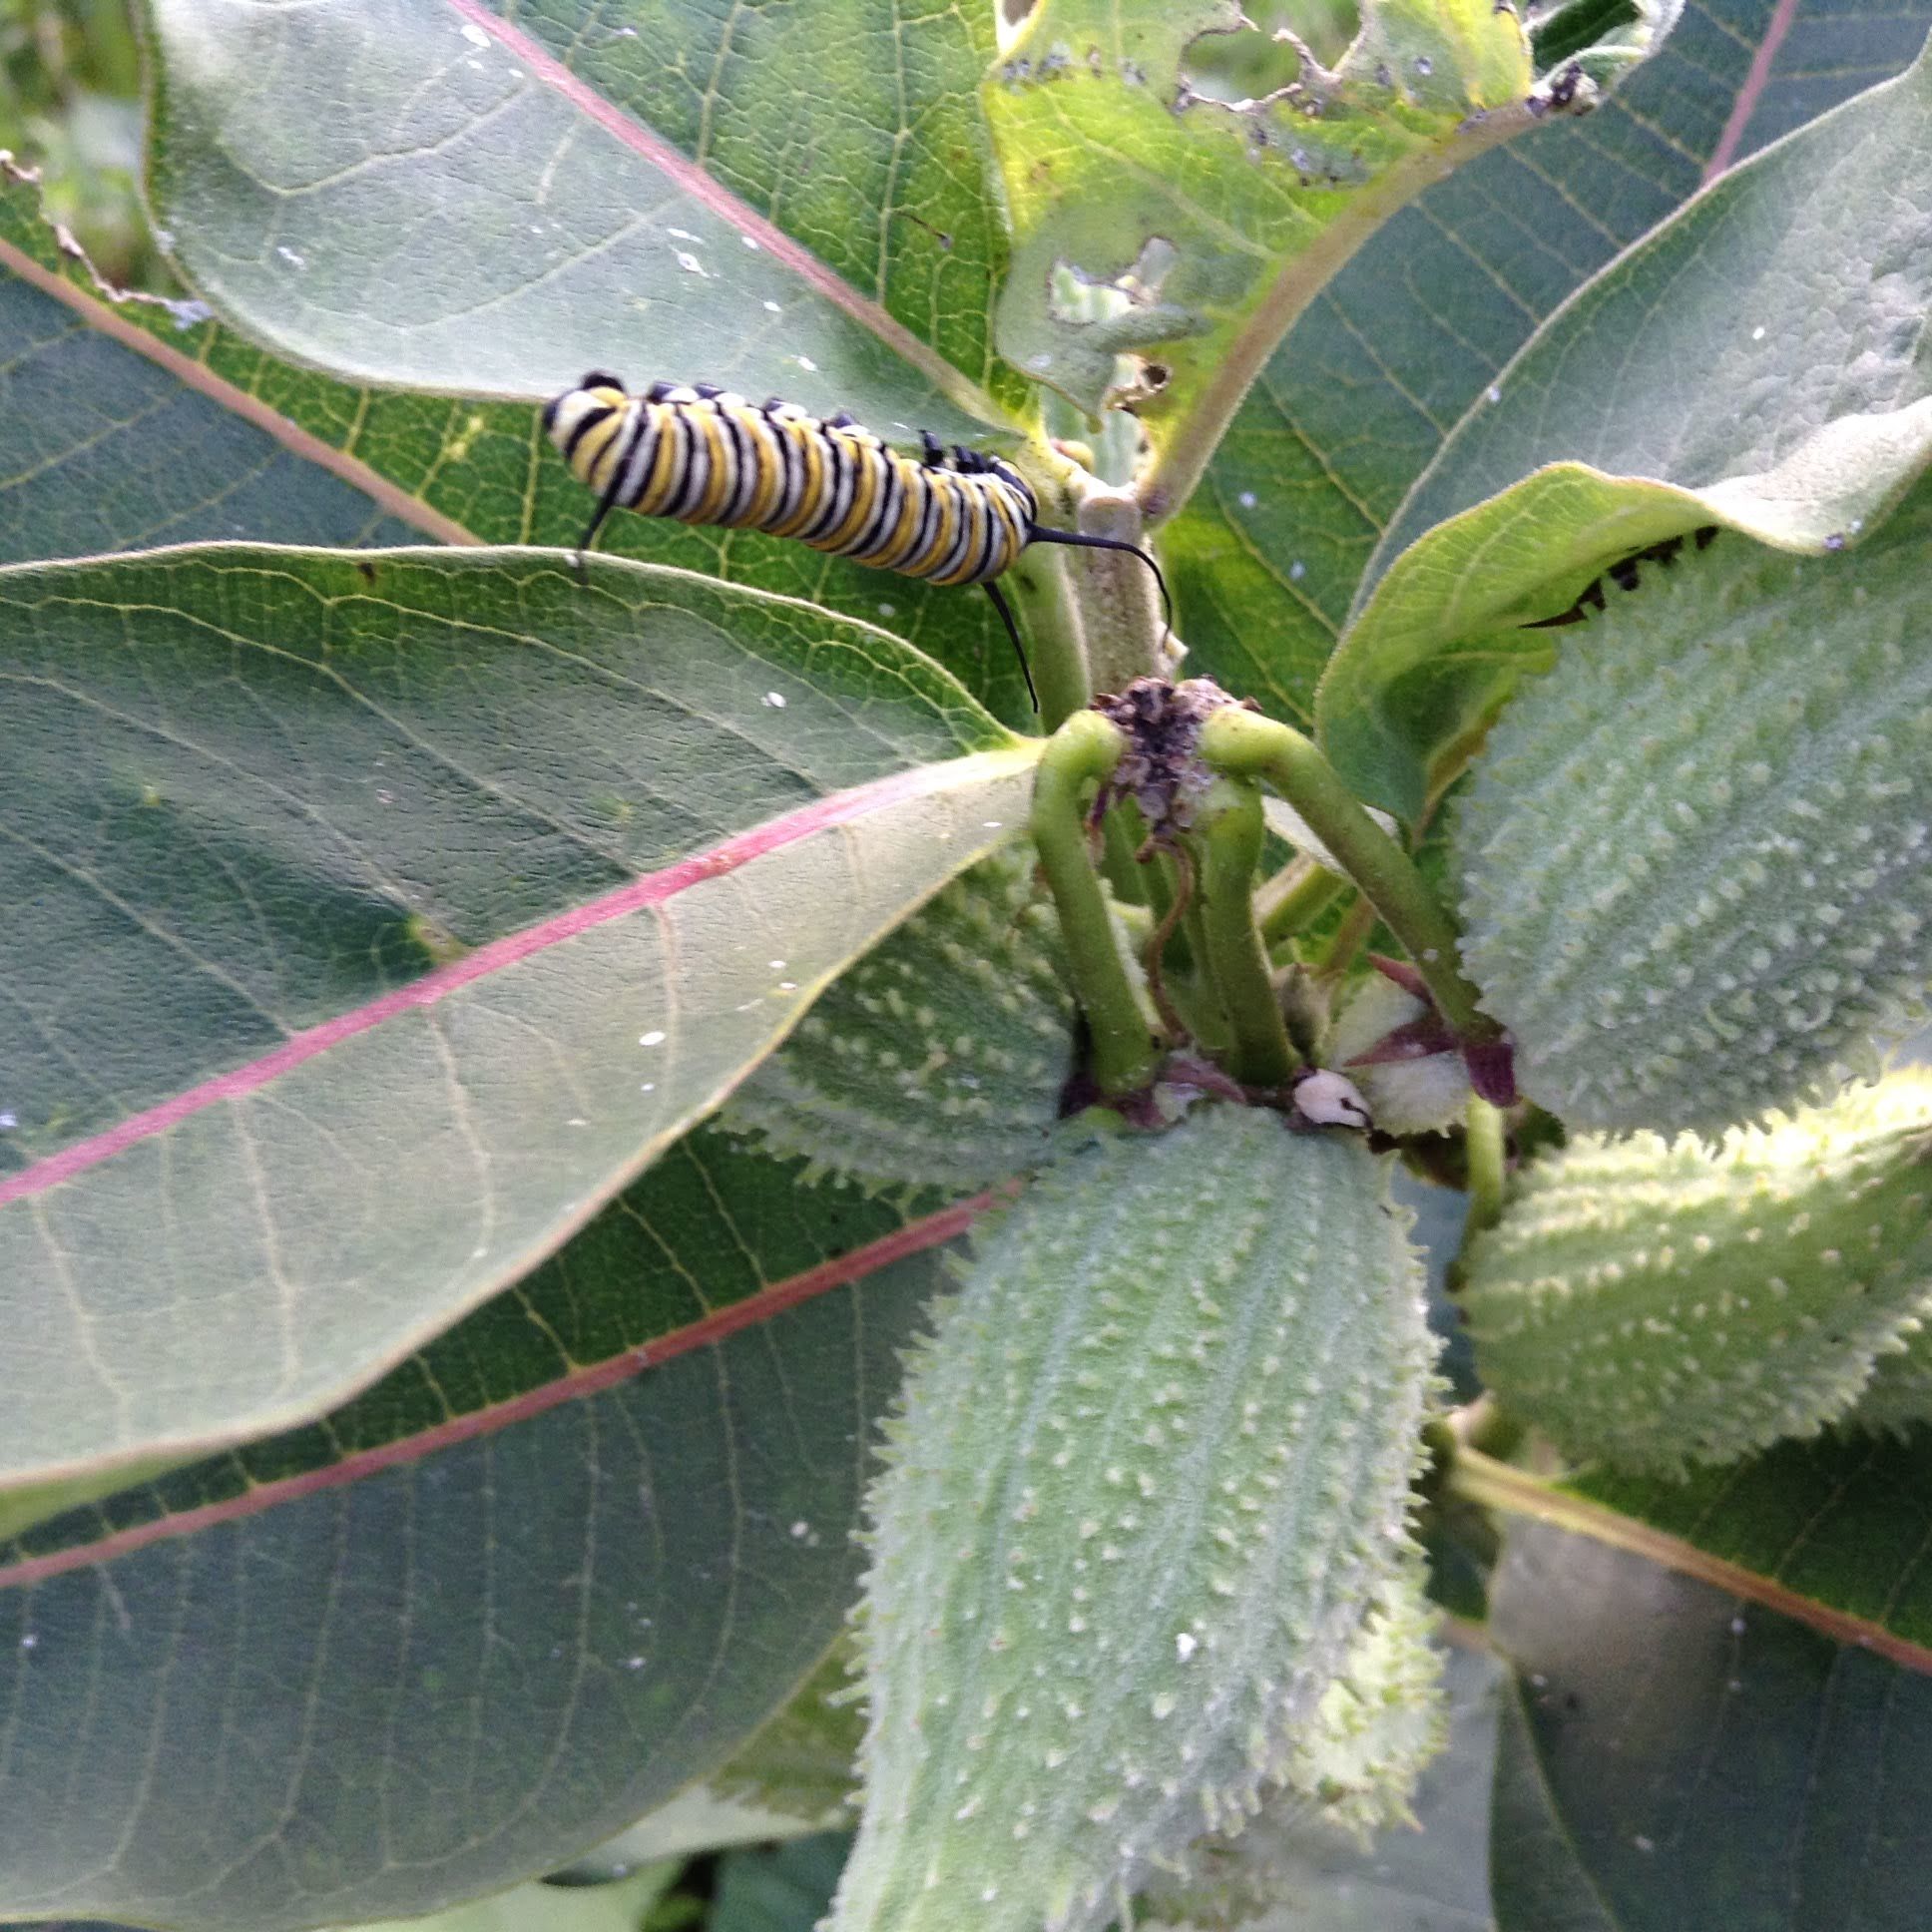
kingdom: Animalia
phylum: Arthropoda
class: Insecta
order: Lepidoptera
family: Nymphalidae
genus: Danaus
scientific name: Danaus plexippus
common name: Monarch
